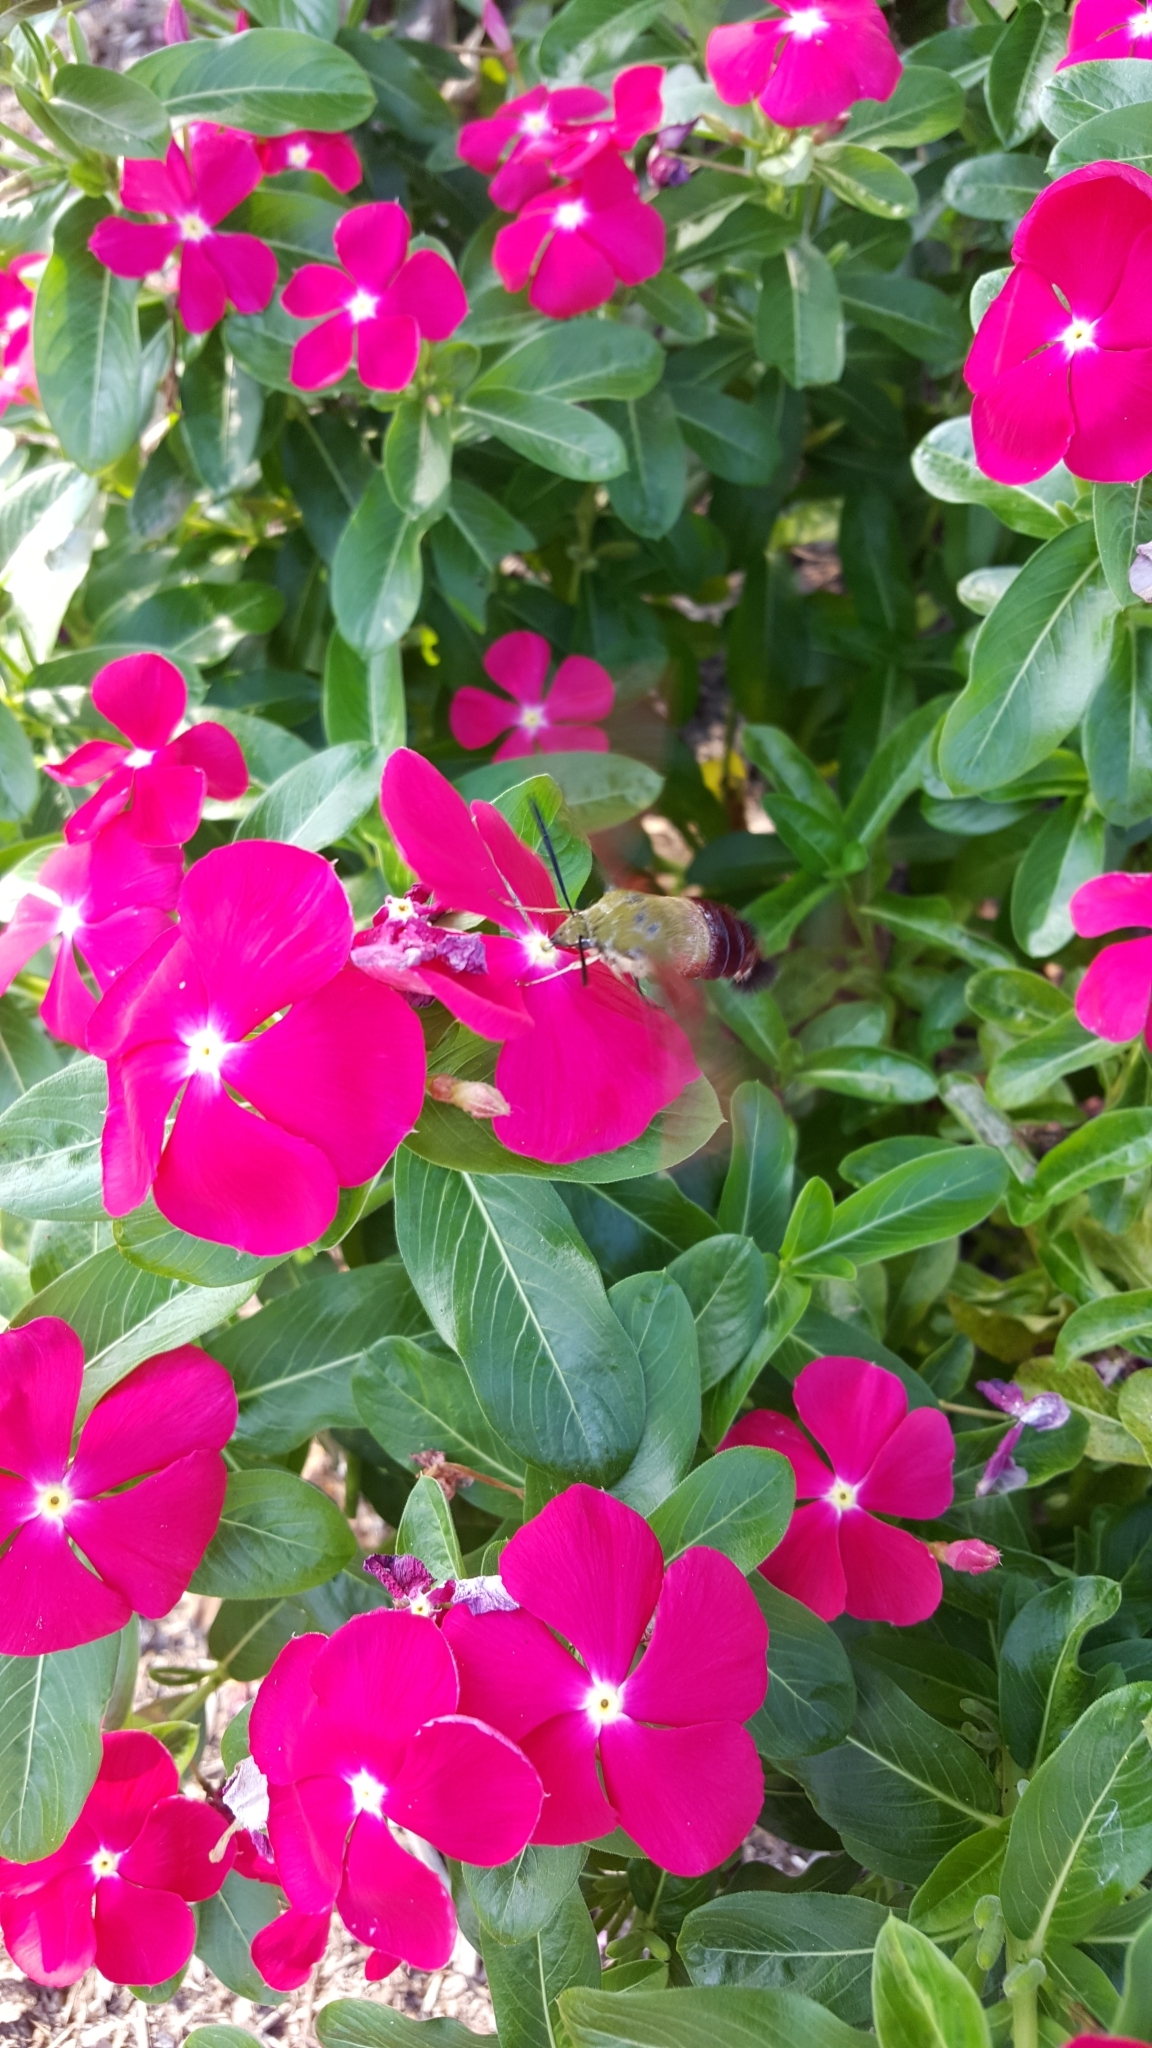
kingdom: Animalia
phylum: Arthropoda
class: Insecta
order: Lepidoptera
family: Sphingidae
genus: Hemaris
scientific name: Hemaris thysbe
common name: Common clear-wing
